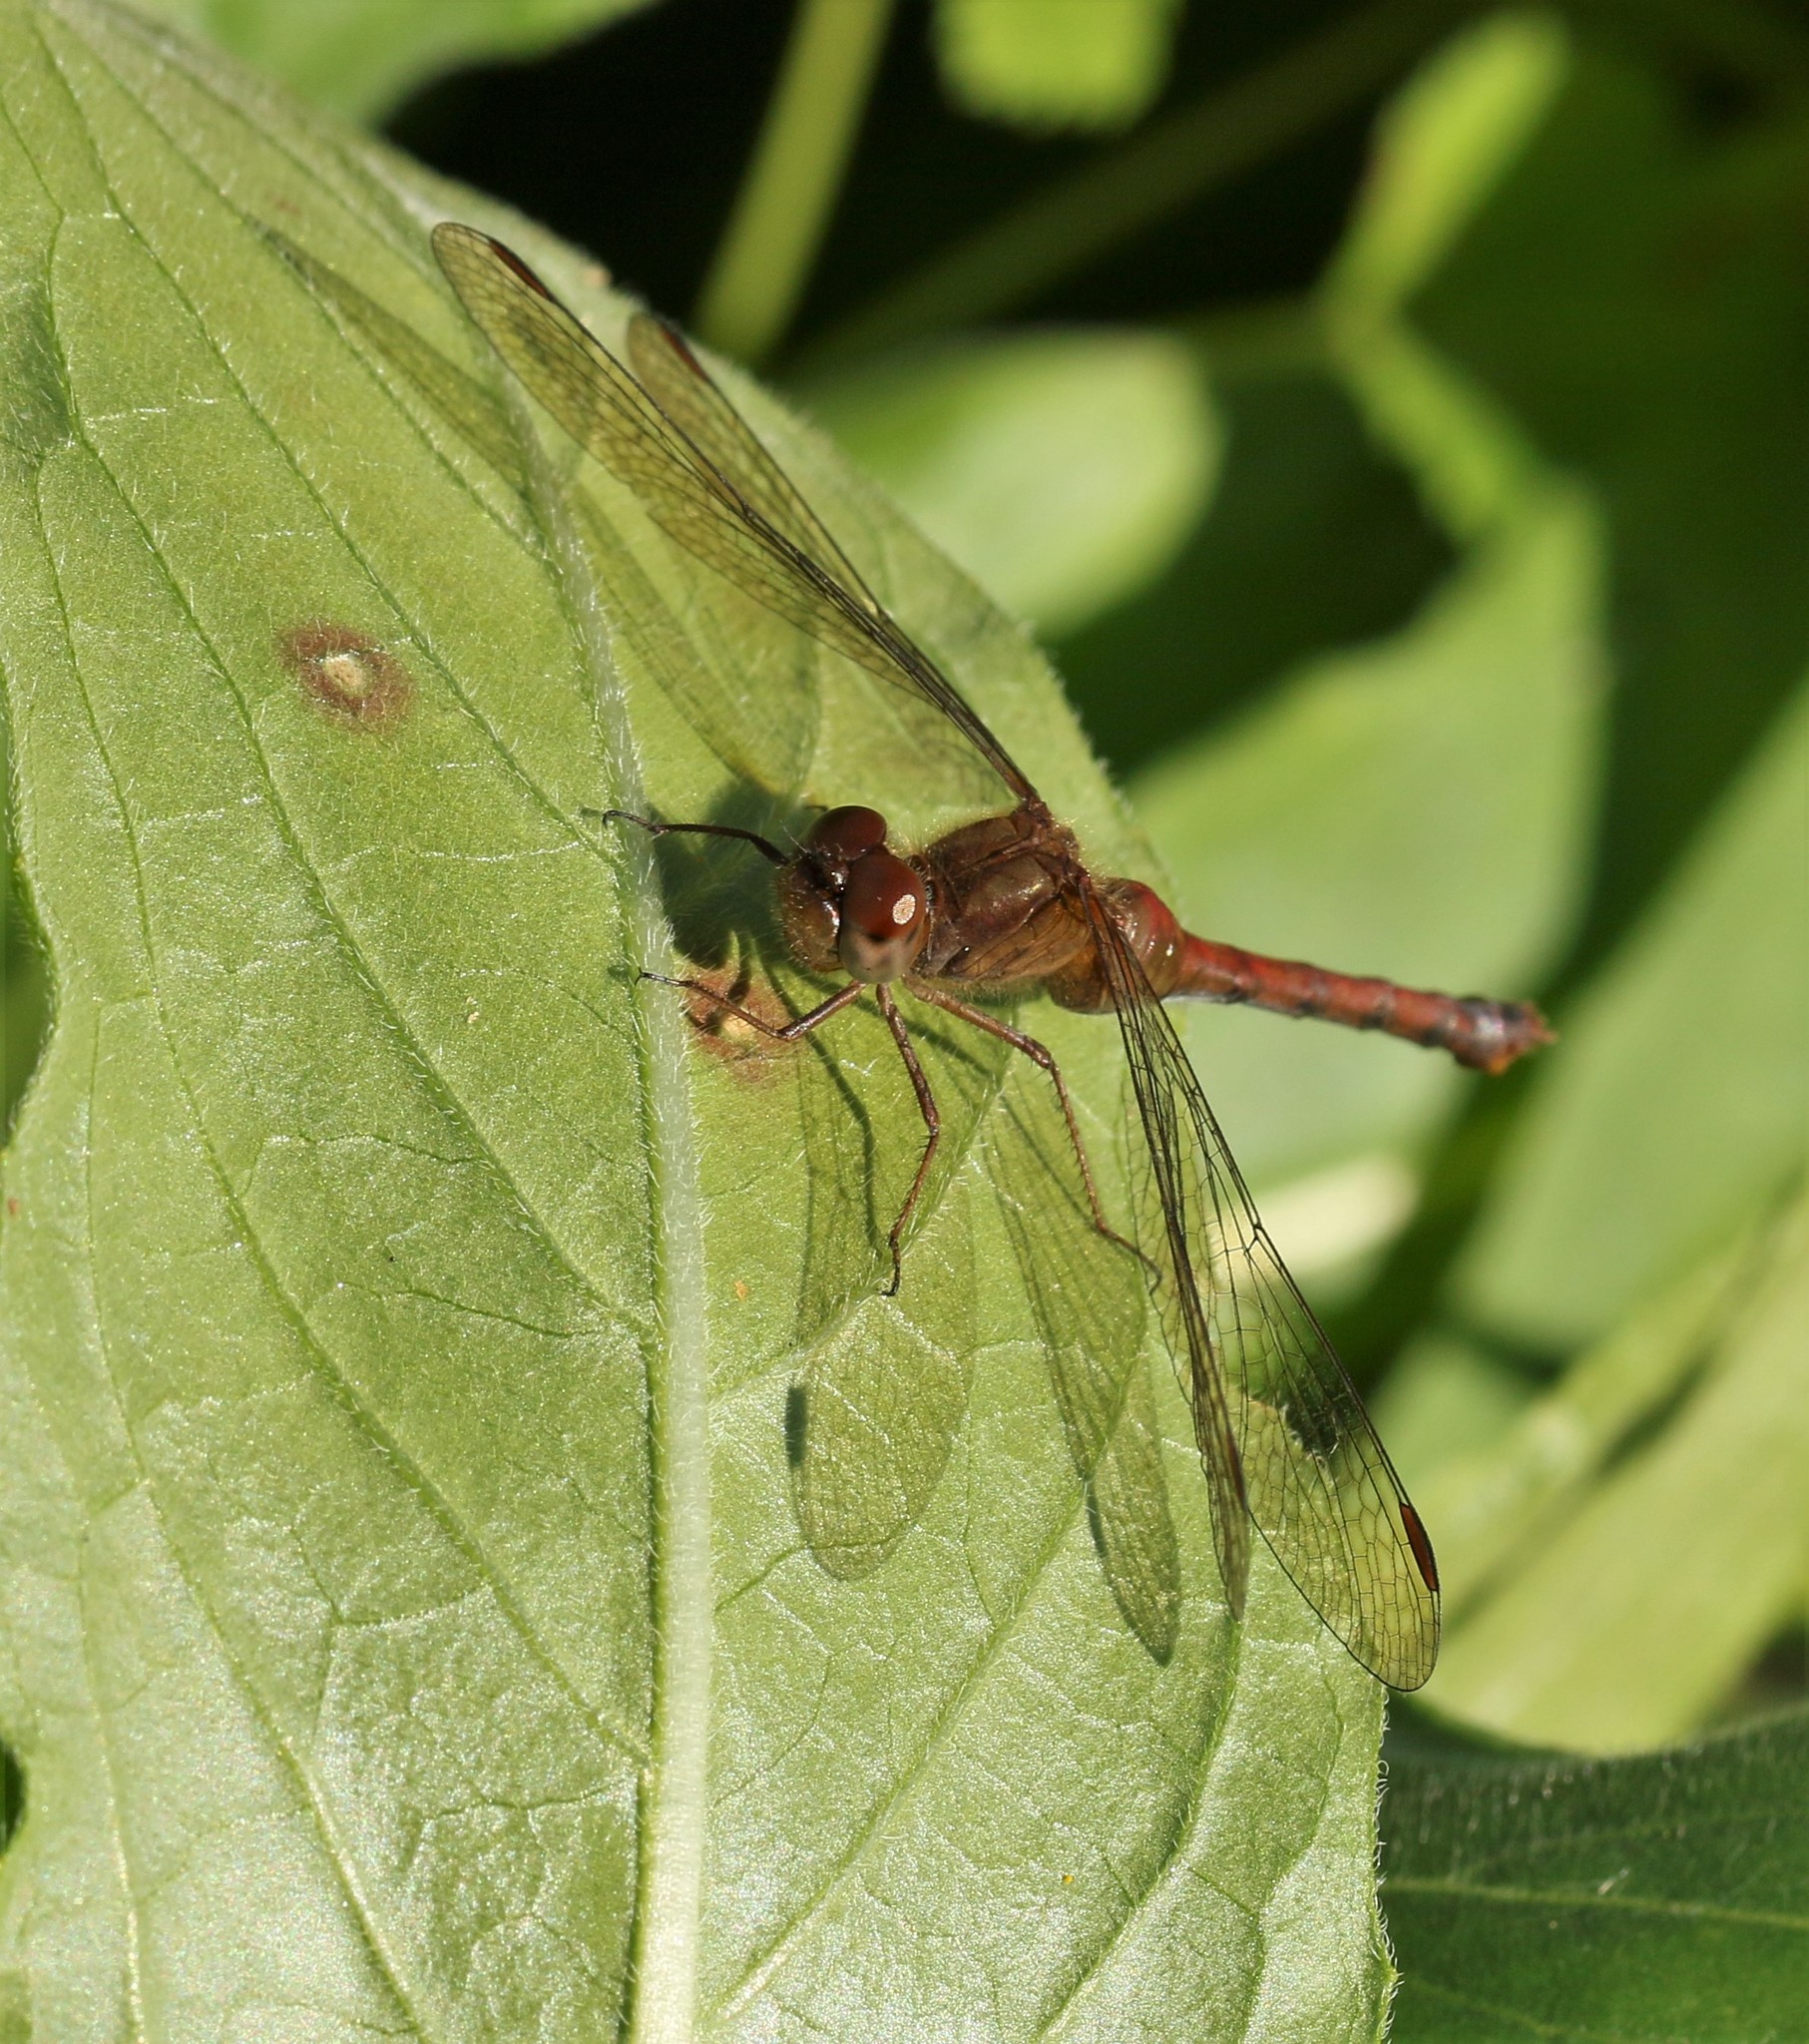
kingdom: Animalia
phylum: Arthropoda
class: Insecta
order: Odonata
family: Libellulidae
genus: Sympetrum
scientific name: Sympetrum vicinum
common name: Autumn meadowhawk
